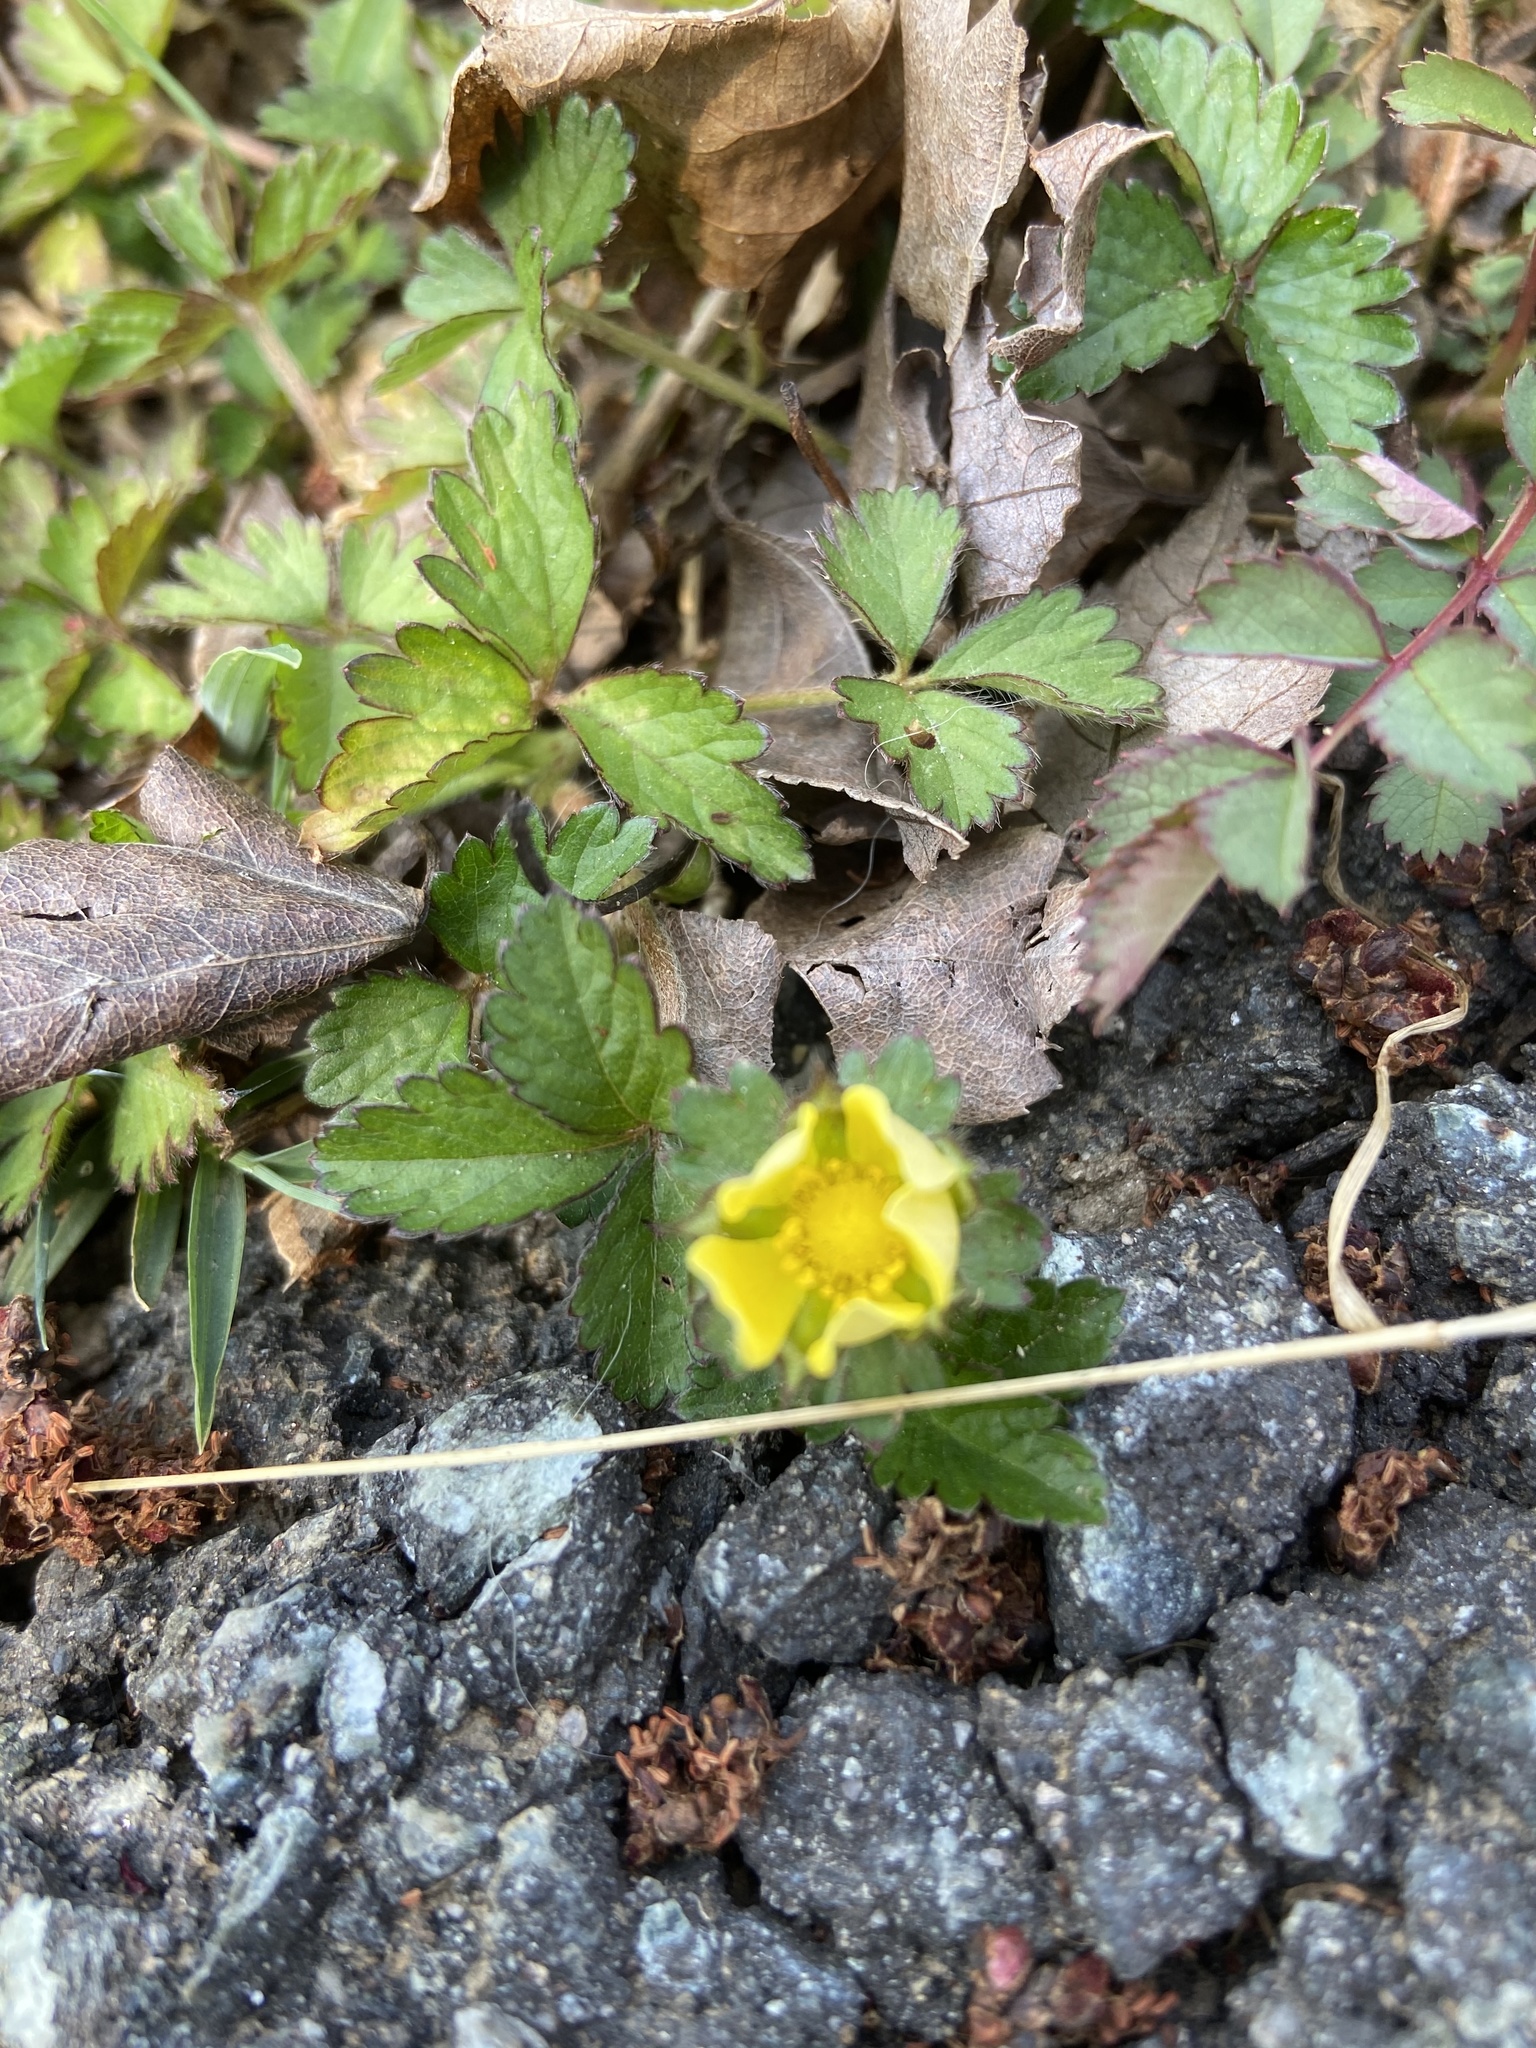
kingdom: Plantae
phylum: Tracheophyta
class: Magnoliopsida
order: Rosales
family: Rosaceae
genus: Potentilla
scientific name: Potentilla indica
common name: Yellow-flowered strawberry
